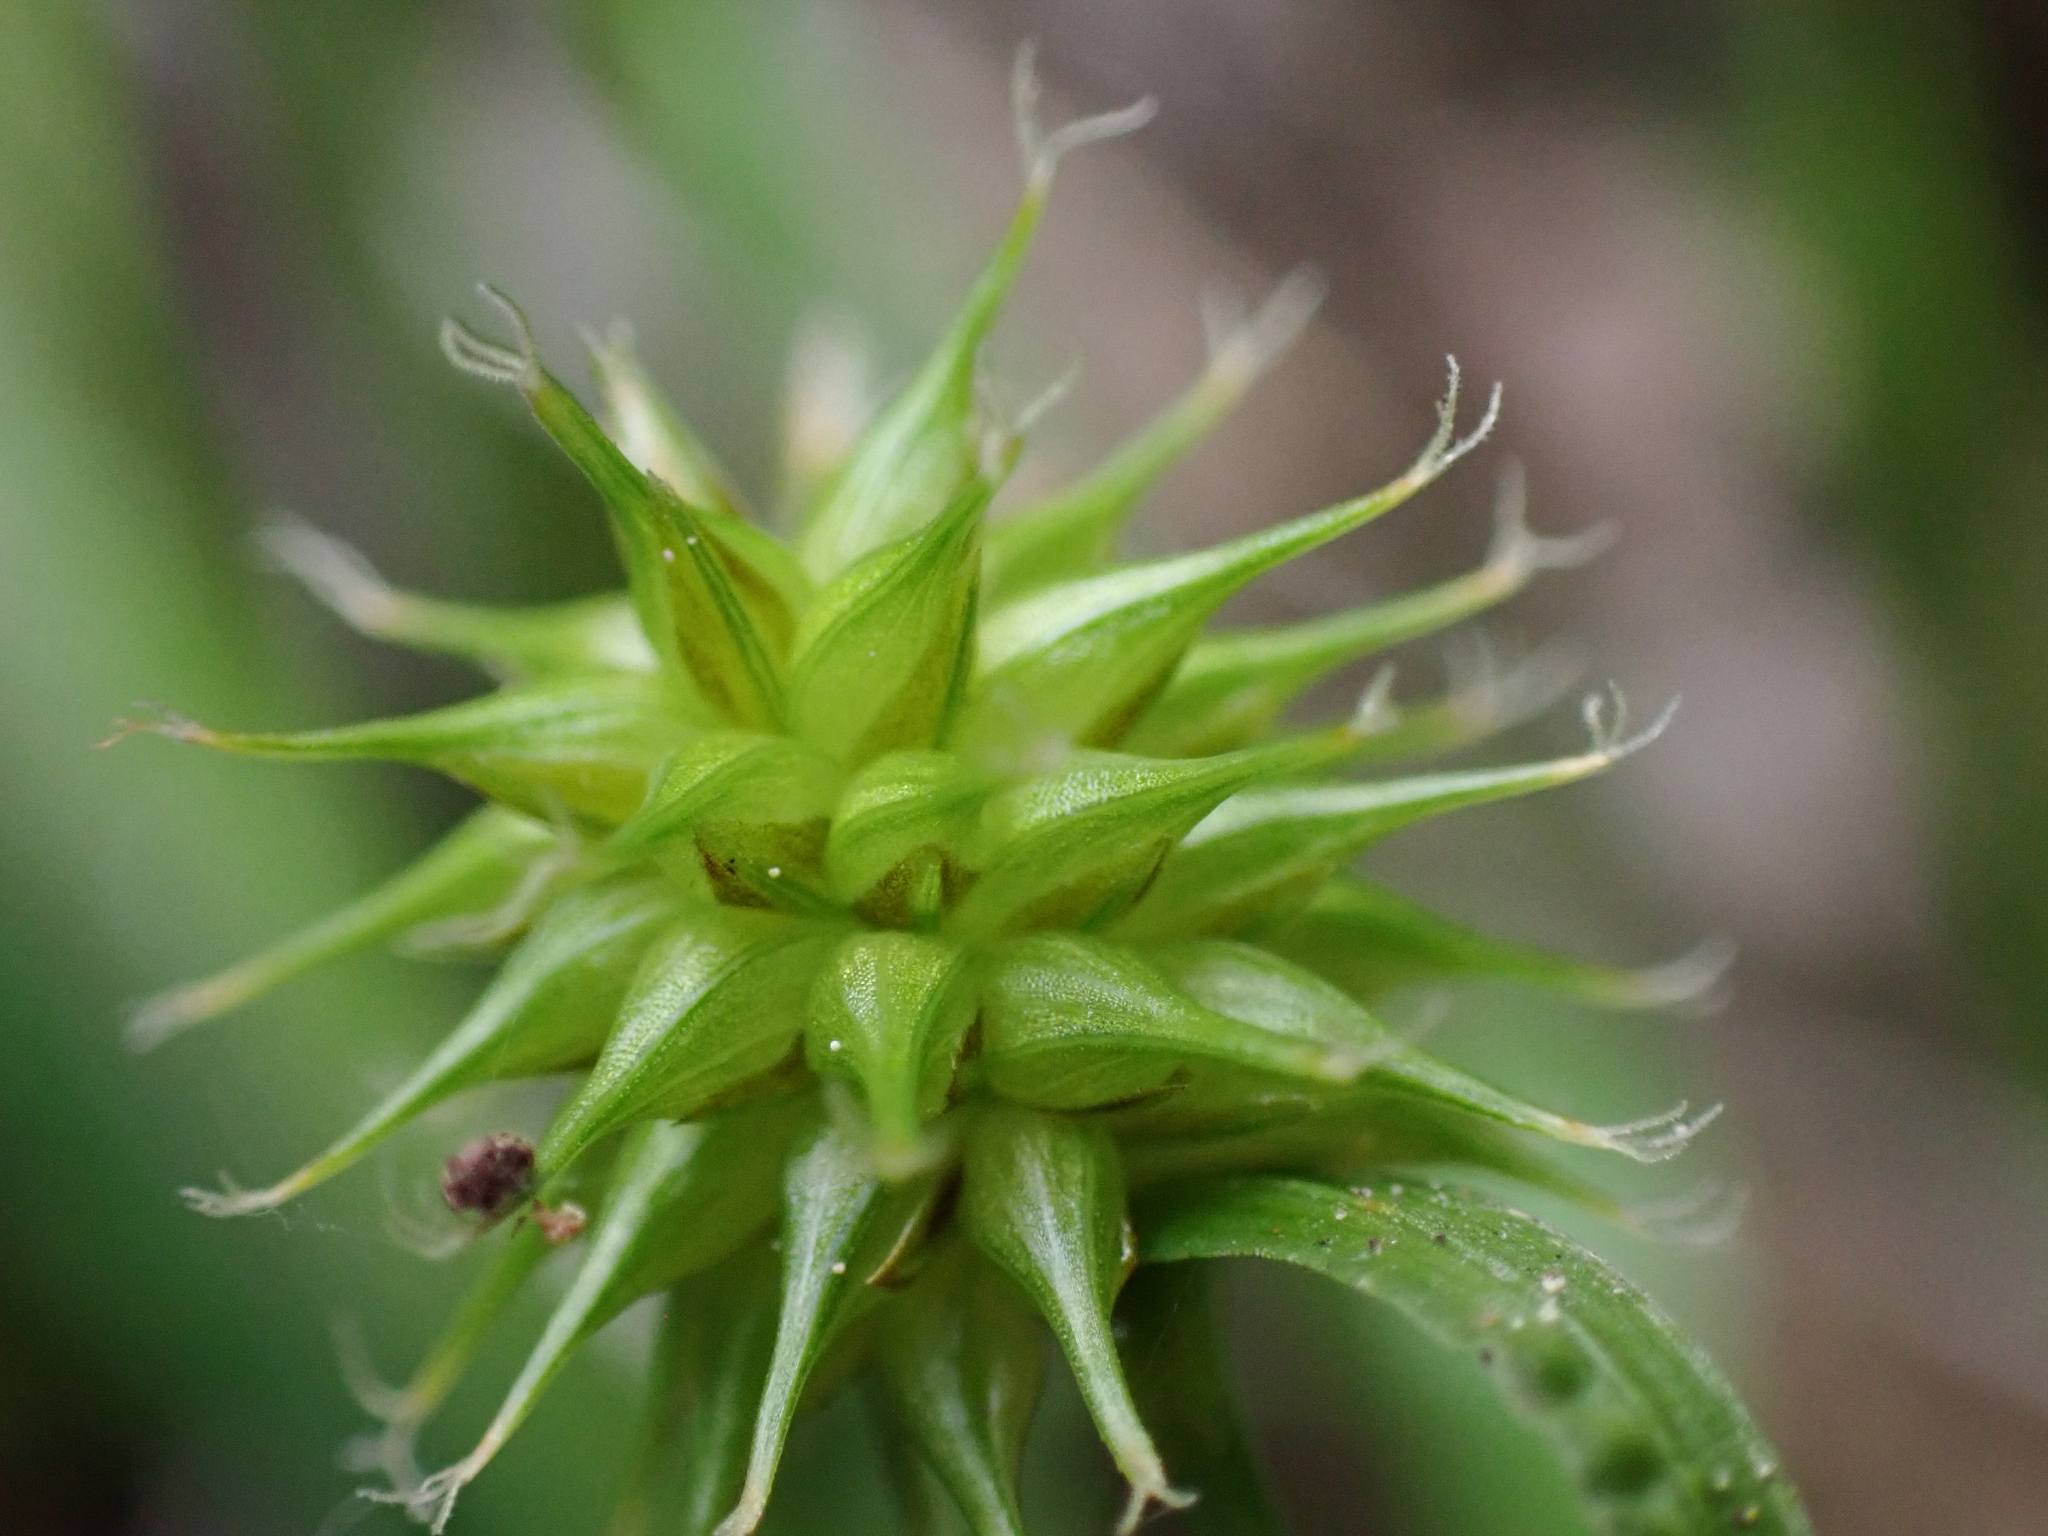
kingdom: Plantae
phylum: Tracheophyta
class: Liliopsida
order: Poales
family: Cyperaceae
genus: Carex
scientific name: Carex flava
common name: Large yellow-sedge
